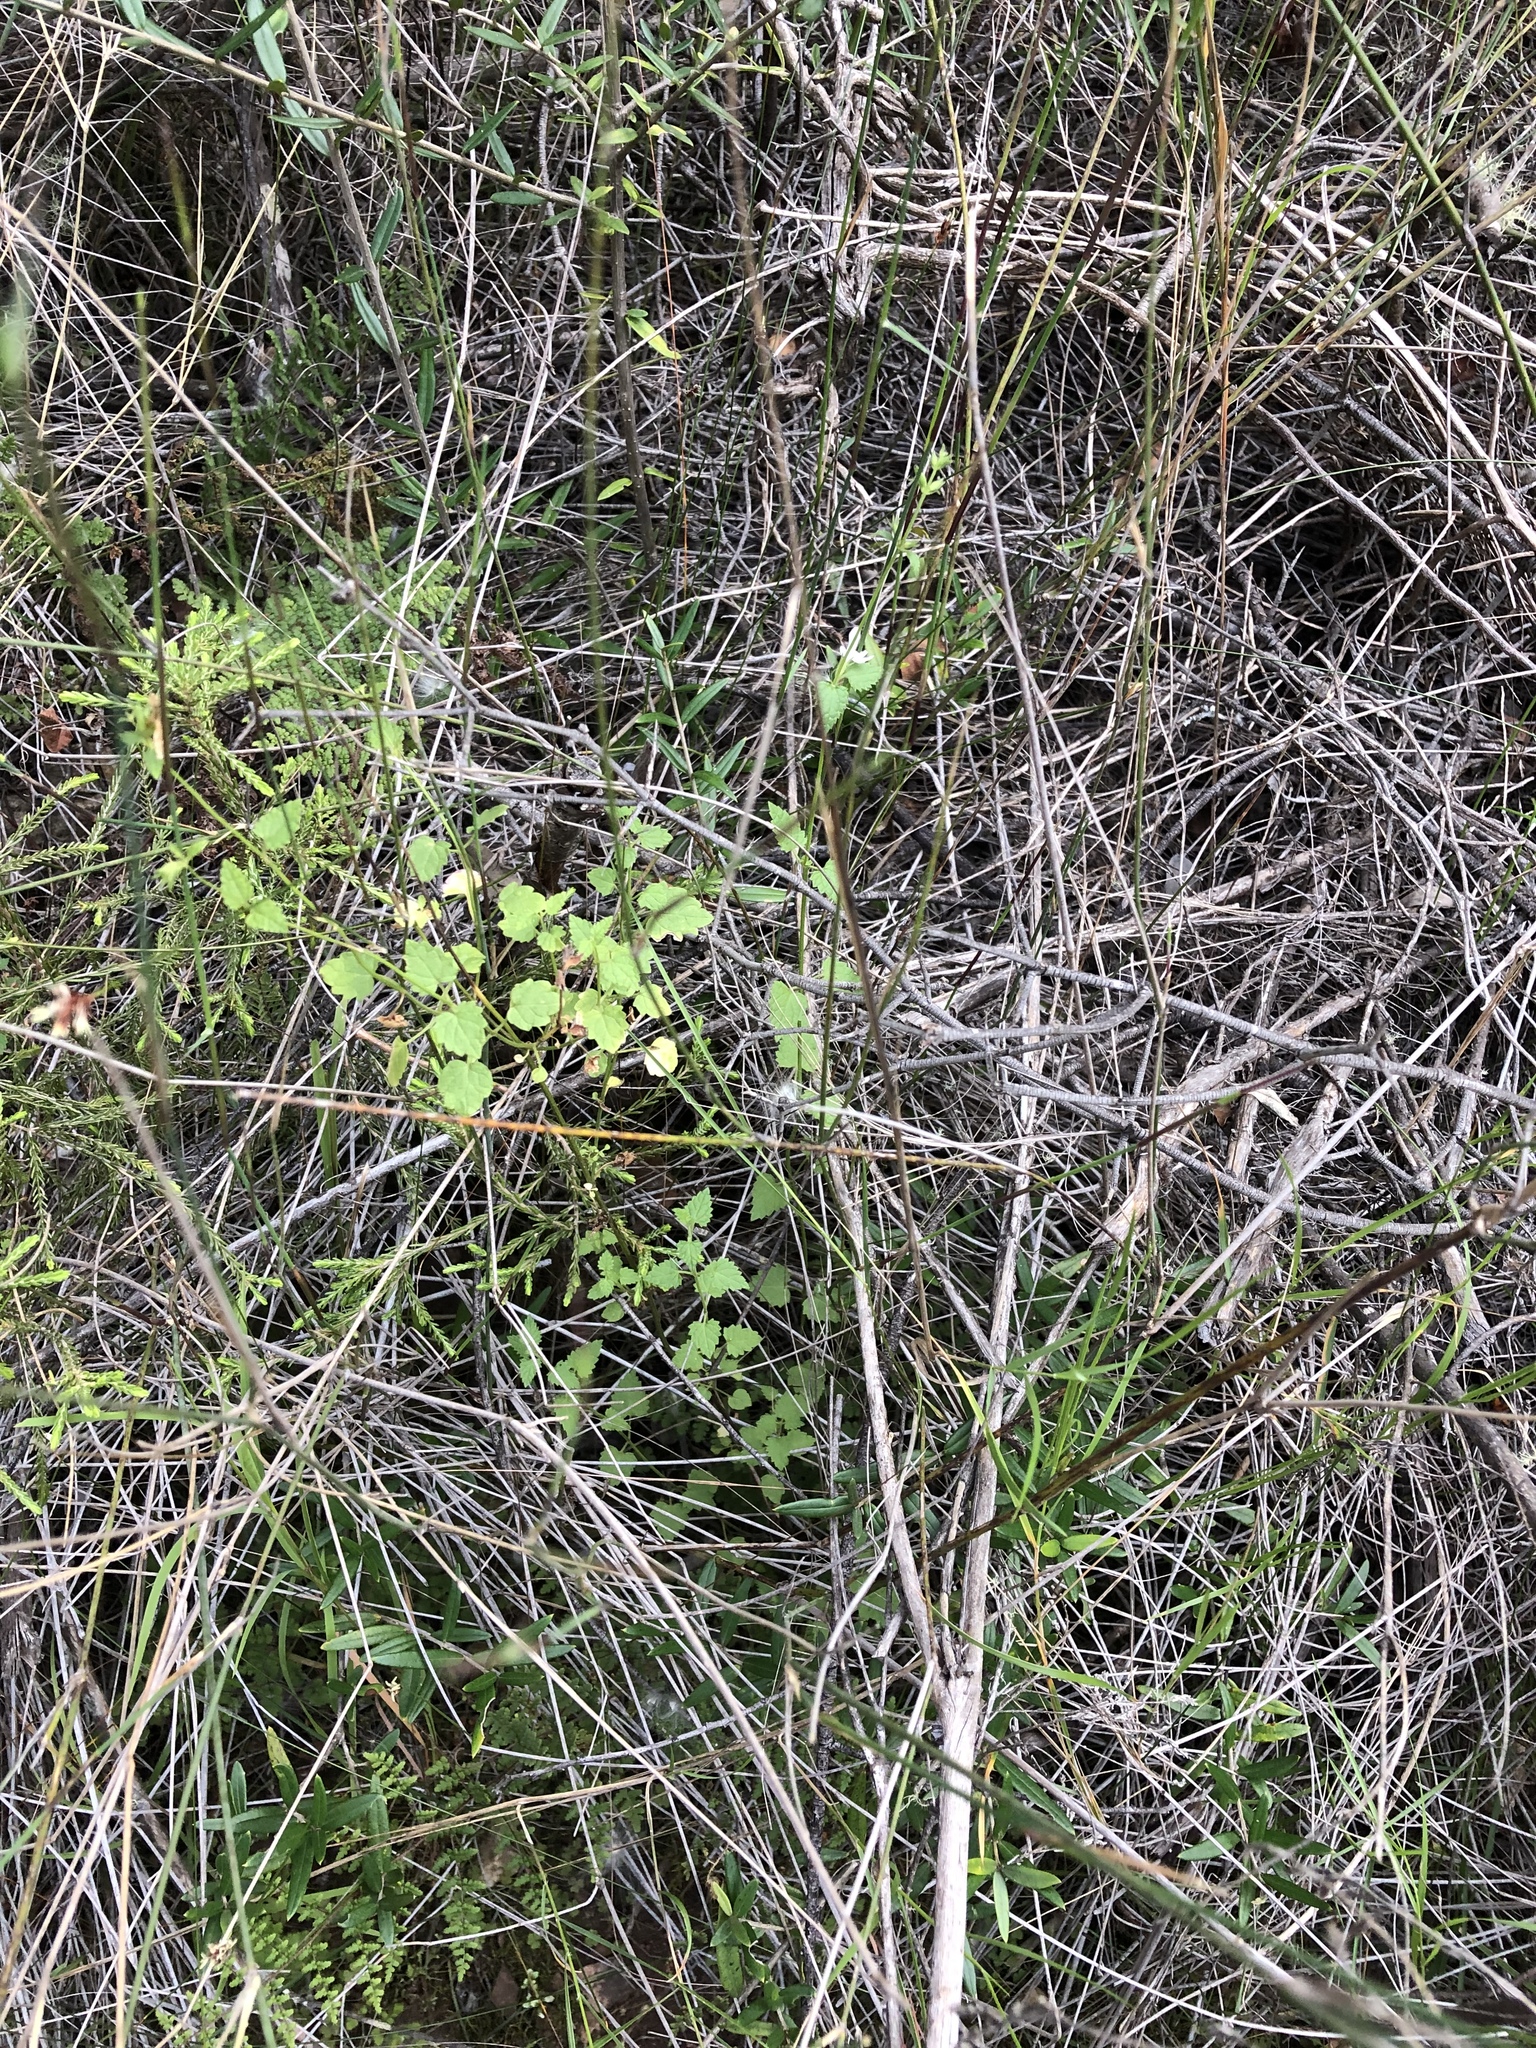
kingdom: Plantae
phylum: Tracheophyta
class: Magnoliopsida
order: Lamiales
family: Lamiaceae
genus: Stachys
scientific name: Stachys aethiopica
